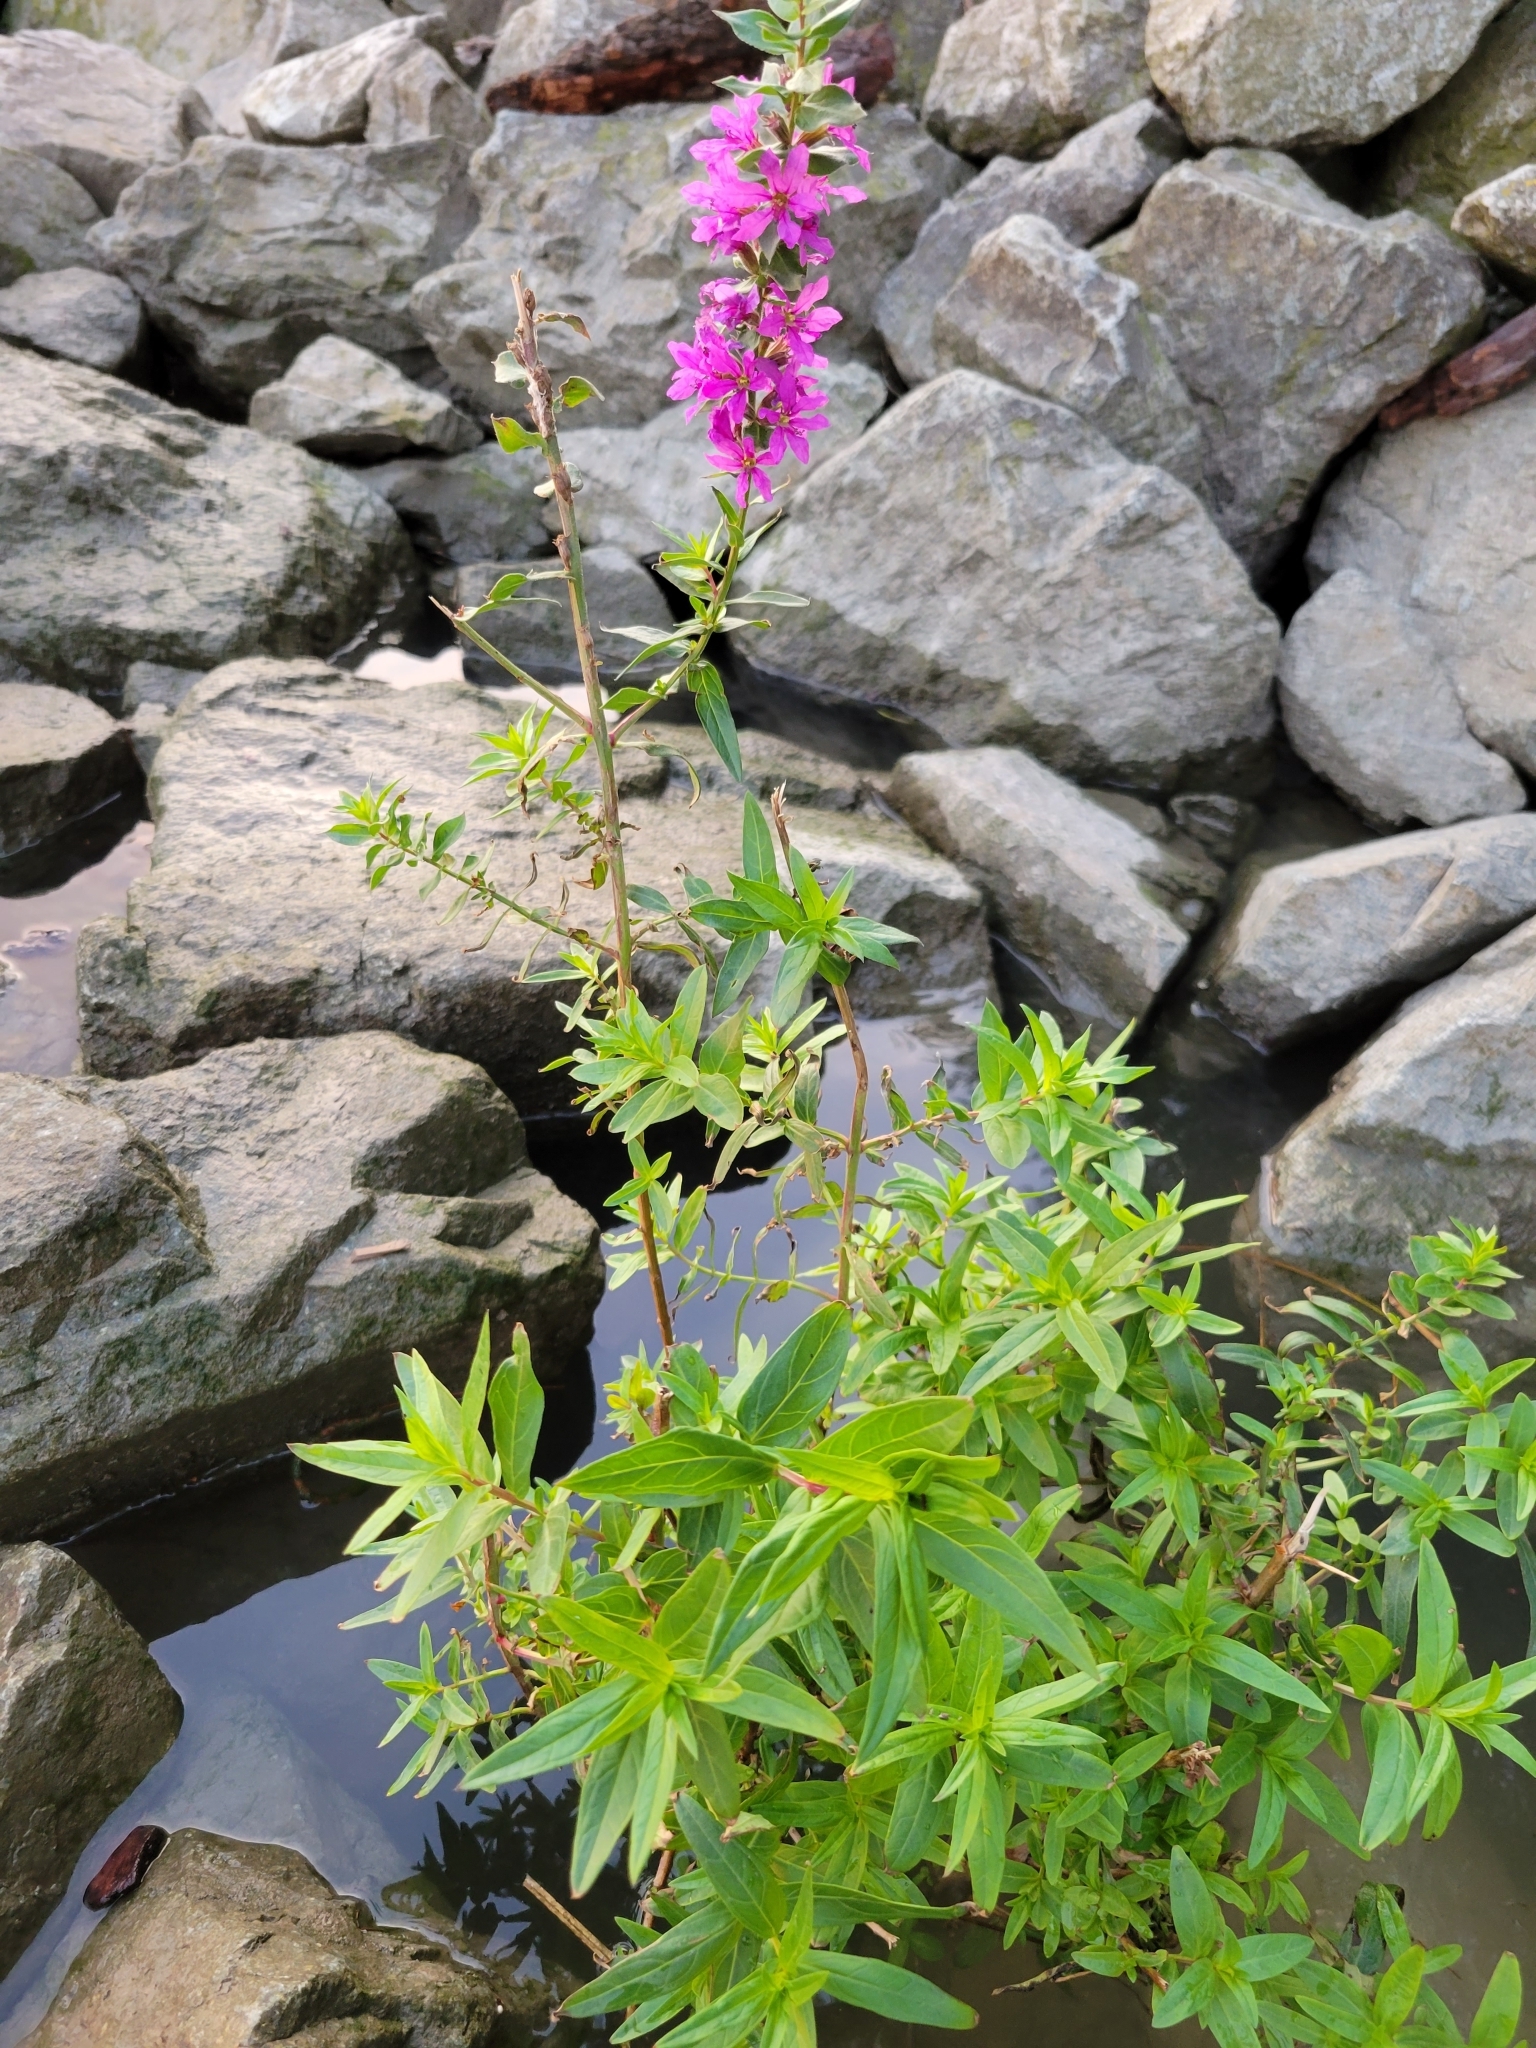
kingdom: Plantae
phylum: Tracheophyta
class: Magnoliopsida
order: Myrtales
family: Lythraceae
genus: Lythrum
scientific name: Lythrum salicaria
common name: Purple loosestrife
